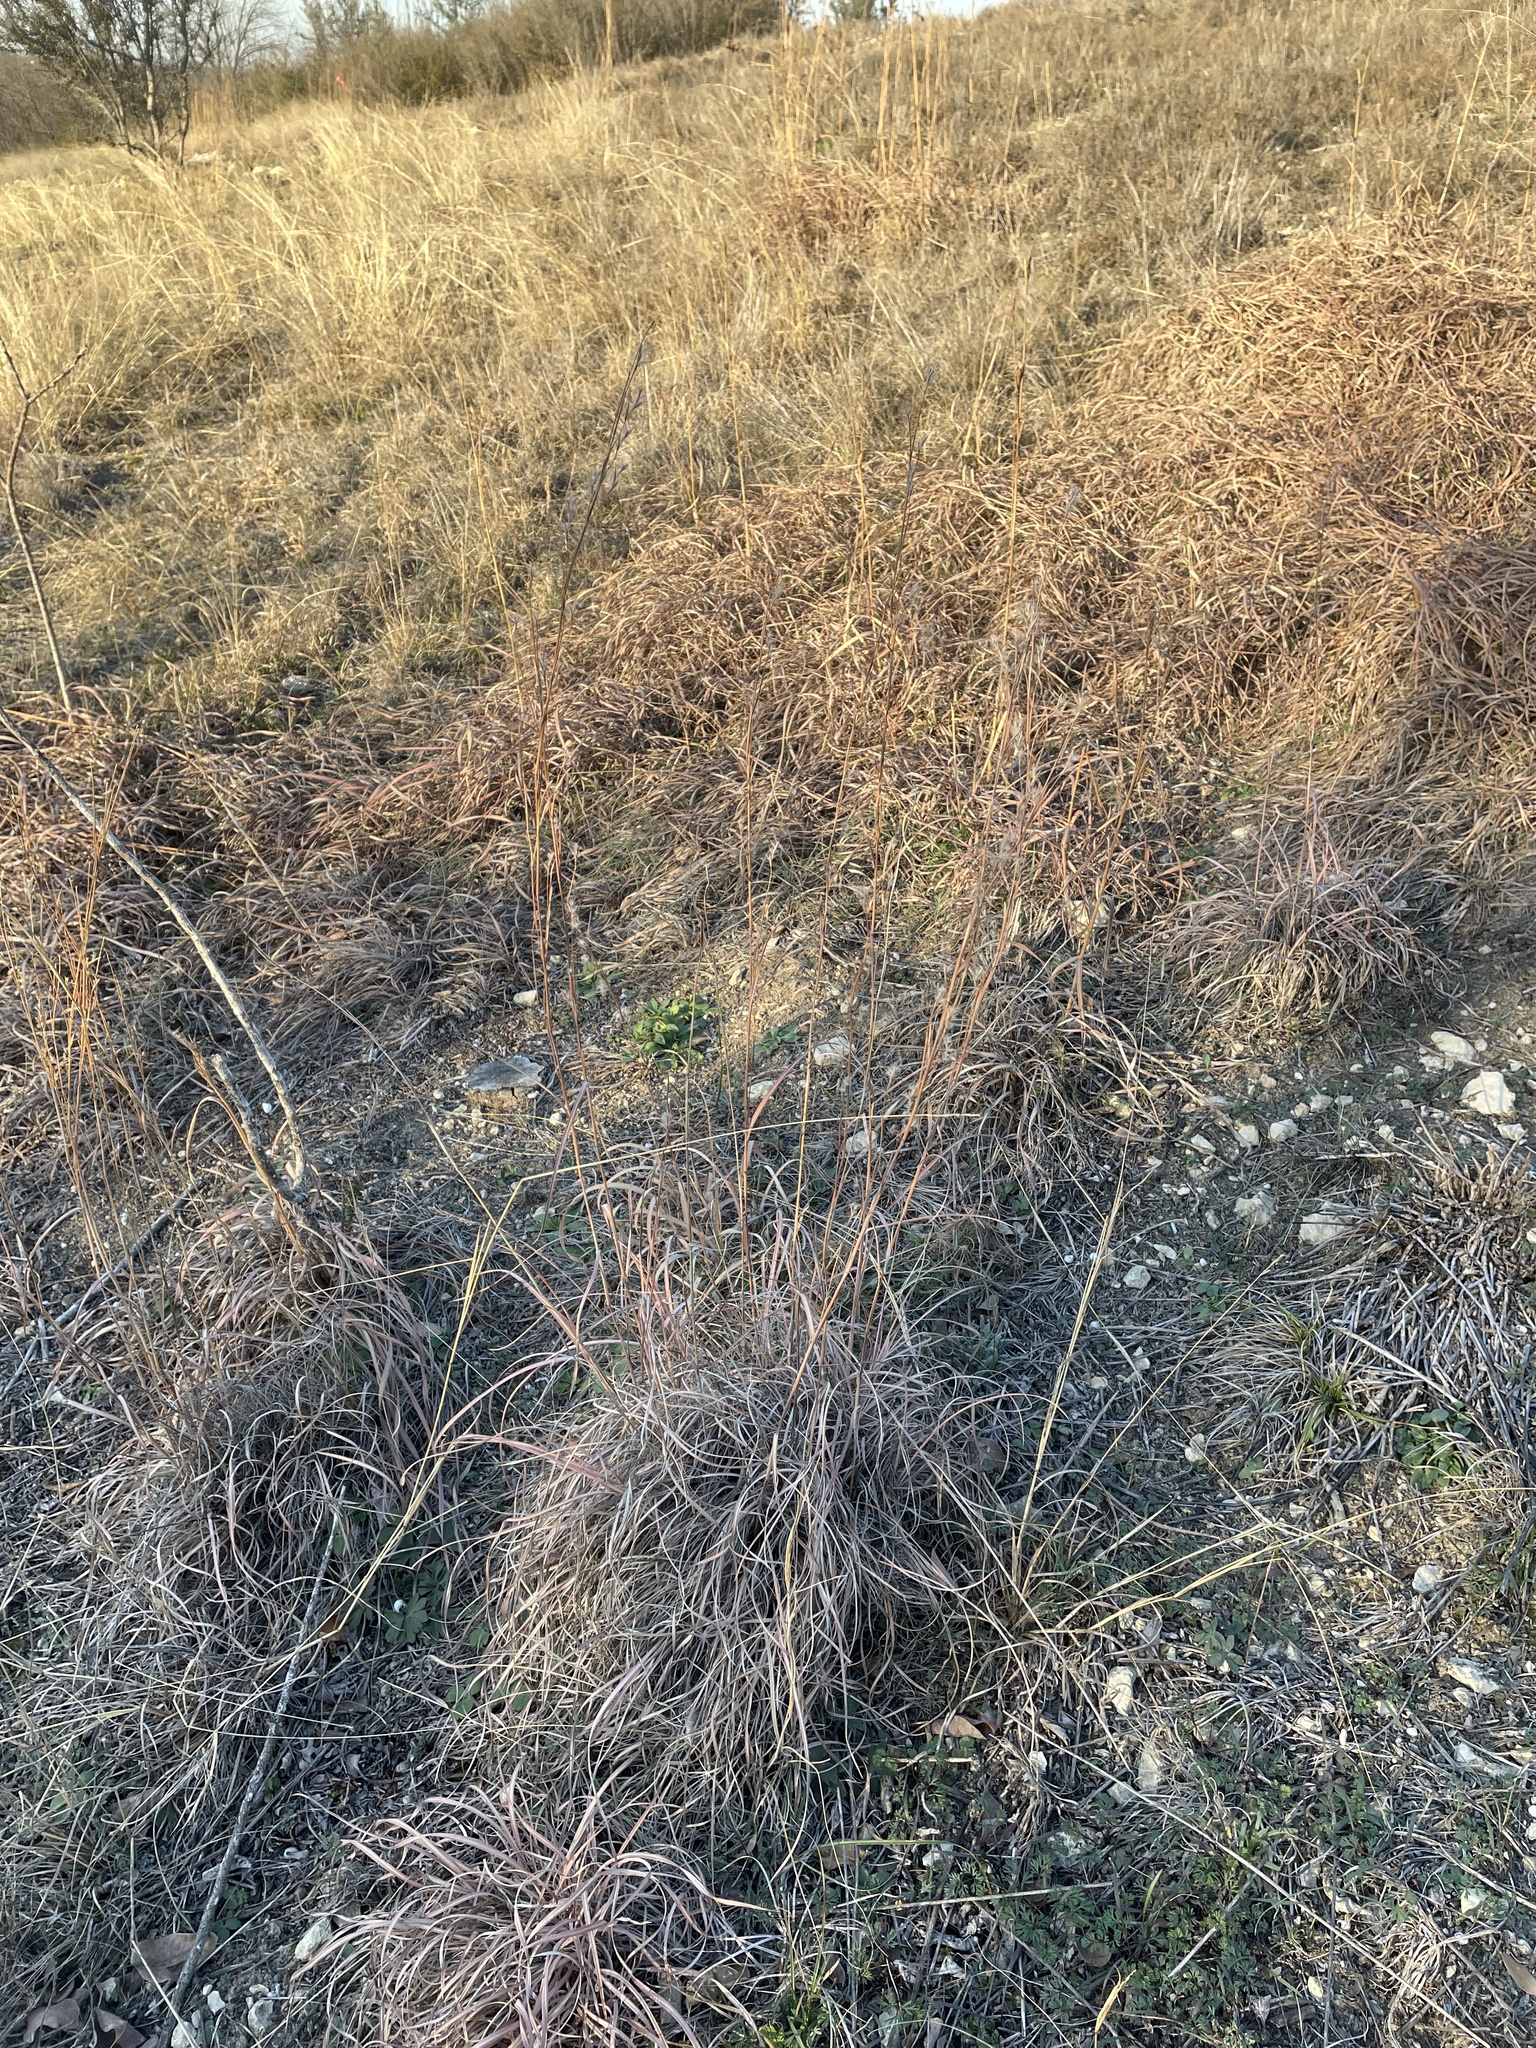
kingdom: Plantae
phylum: Tracheophyta
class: Liliopsida
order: Poales
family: Poaceae
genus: Schizachyrium
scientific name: Schizachyrium scoparium
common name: Little bluestem
